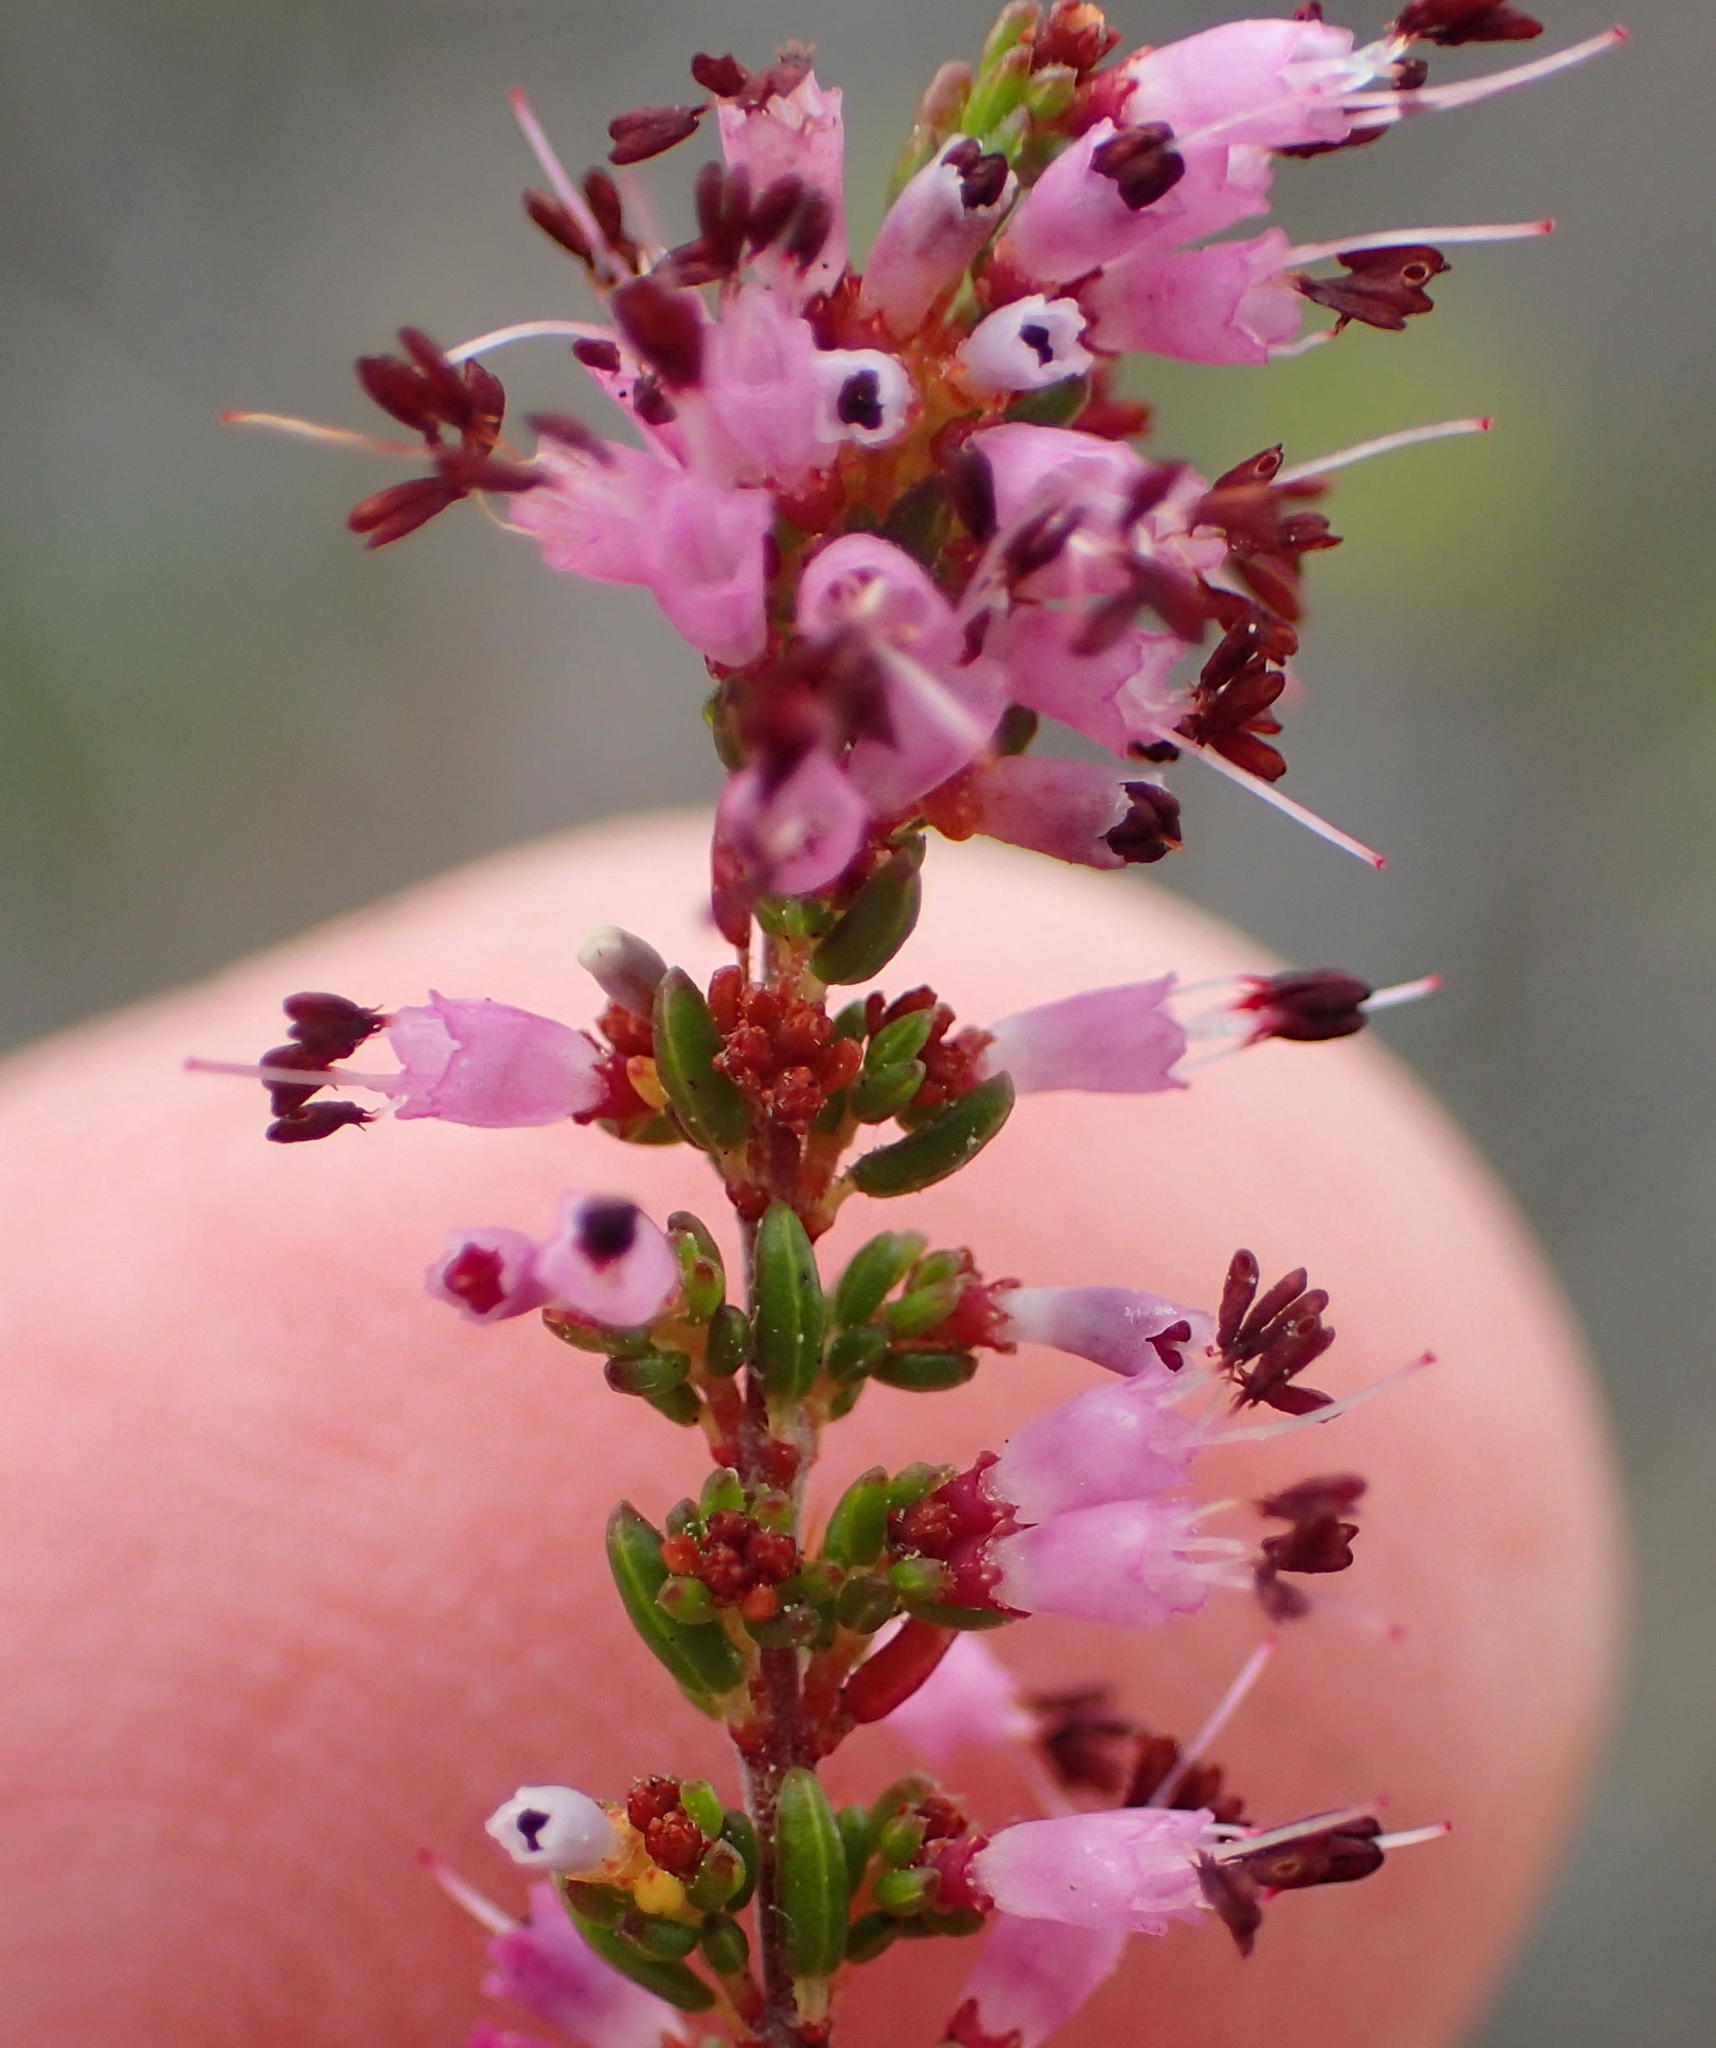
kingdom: Plantae
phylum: Tracheophyta
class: Magnoliopsida
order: Ericales
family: Ericaceae
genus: Erica
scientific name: Erica anguliger
